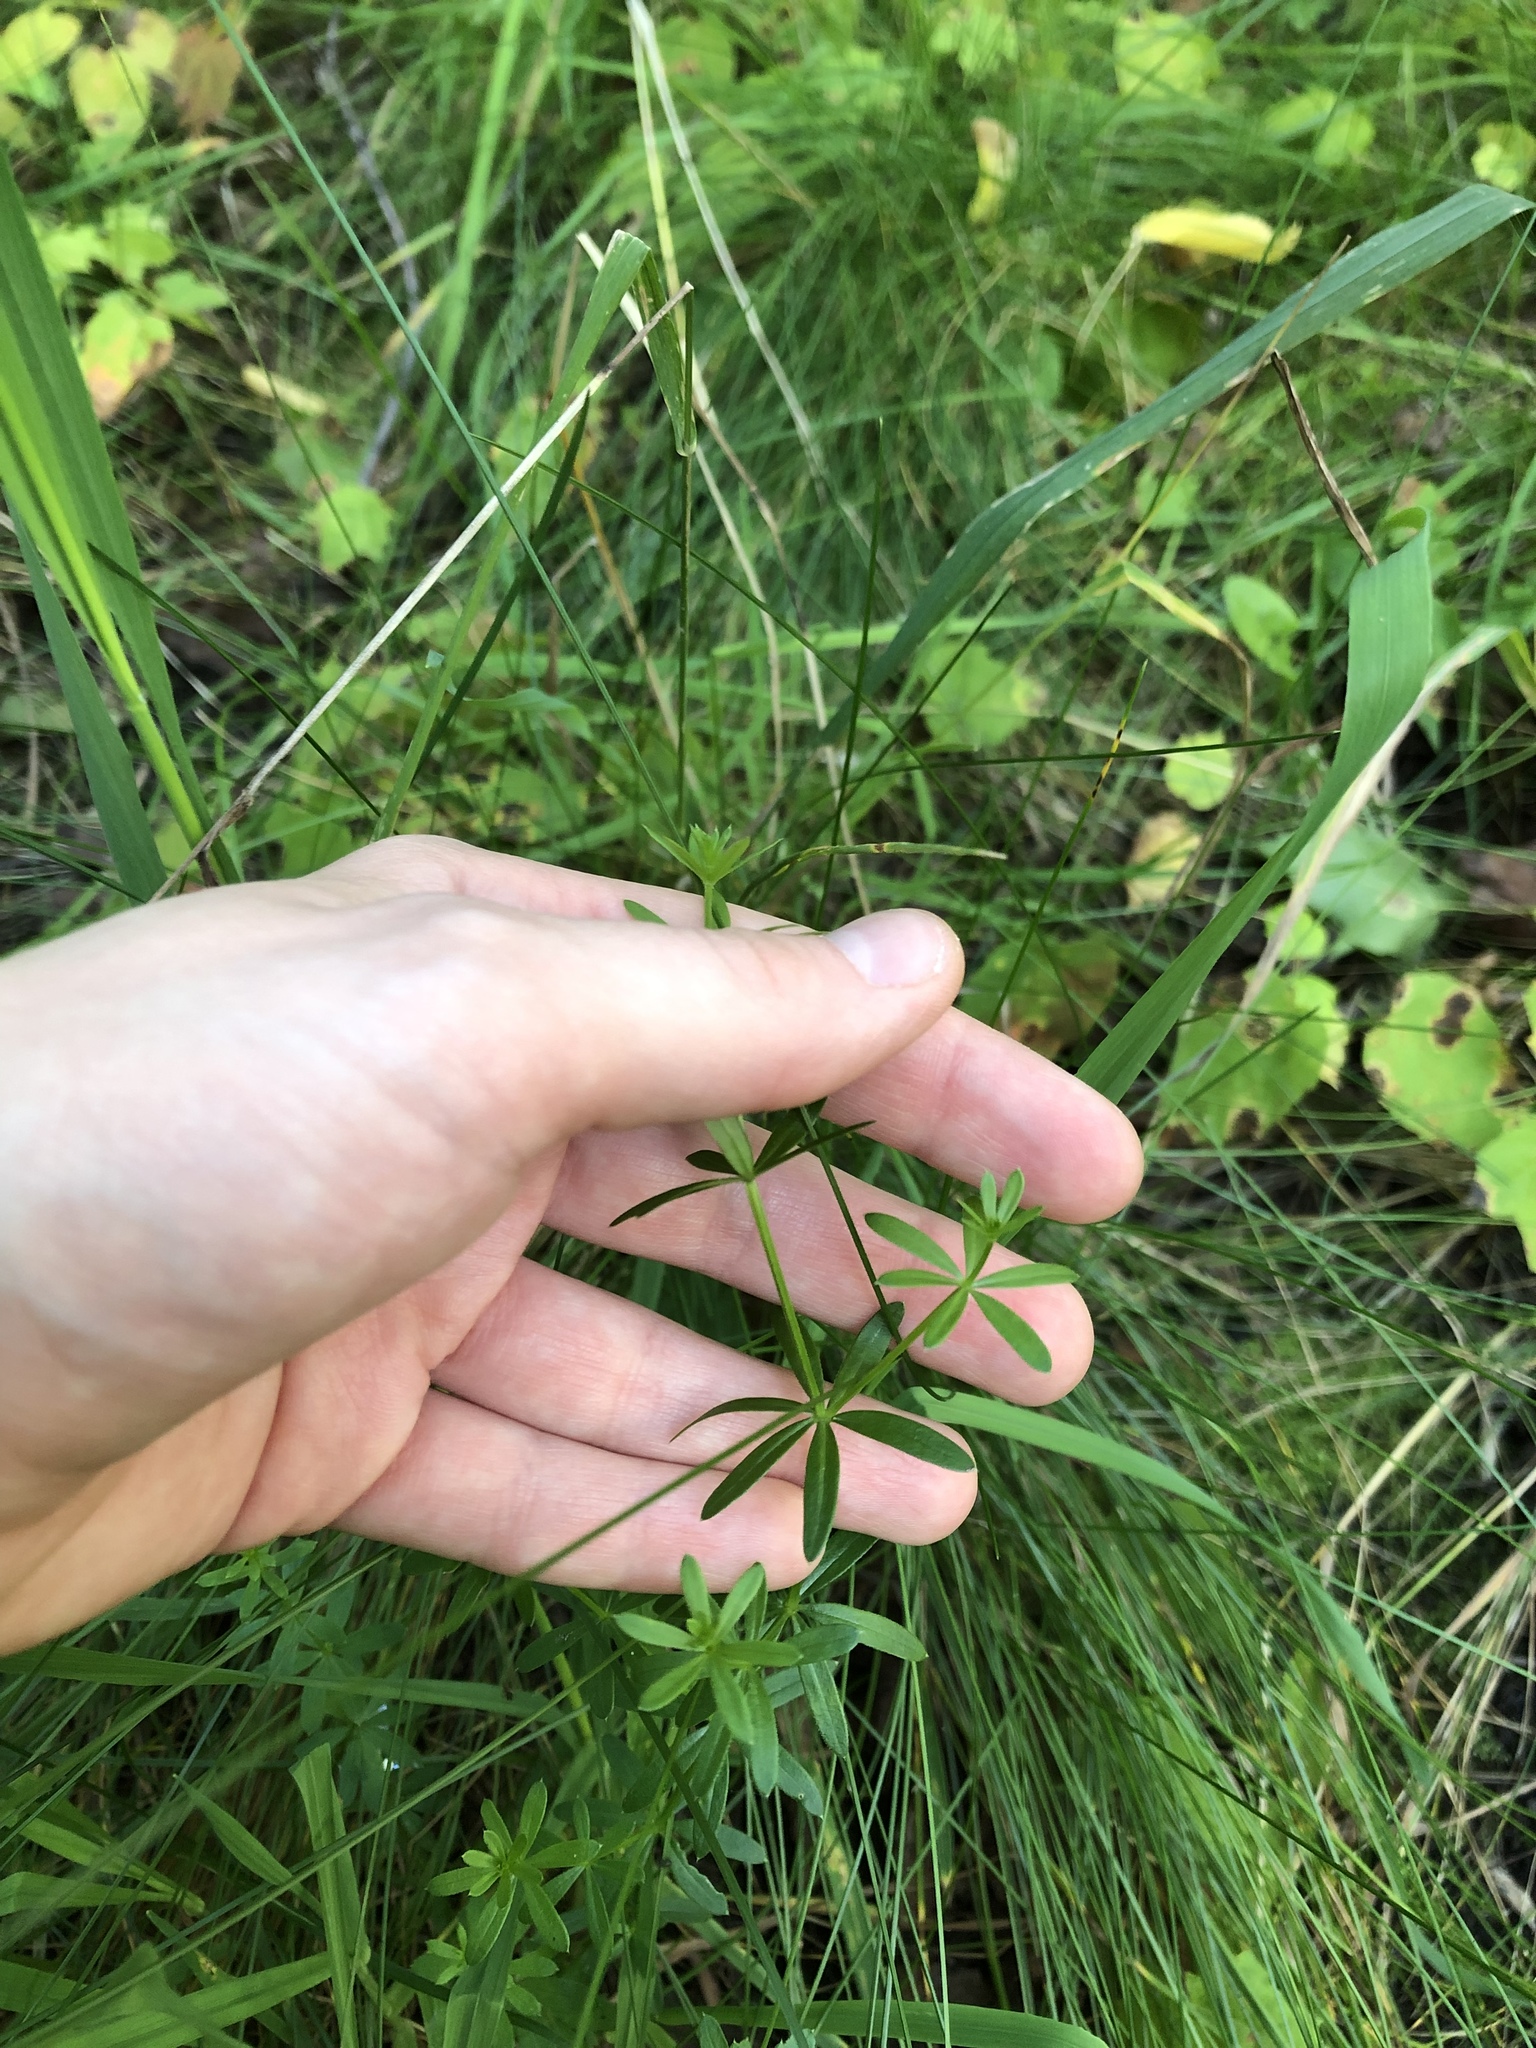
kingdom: Plantae
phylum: Tracheophyta
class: Magnoliopsida
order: Gentianales
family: Rubiaceae
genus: Galium
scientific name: Galium mollugo
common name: Hedge bedstraw
